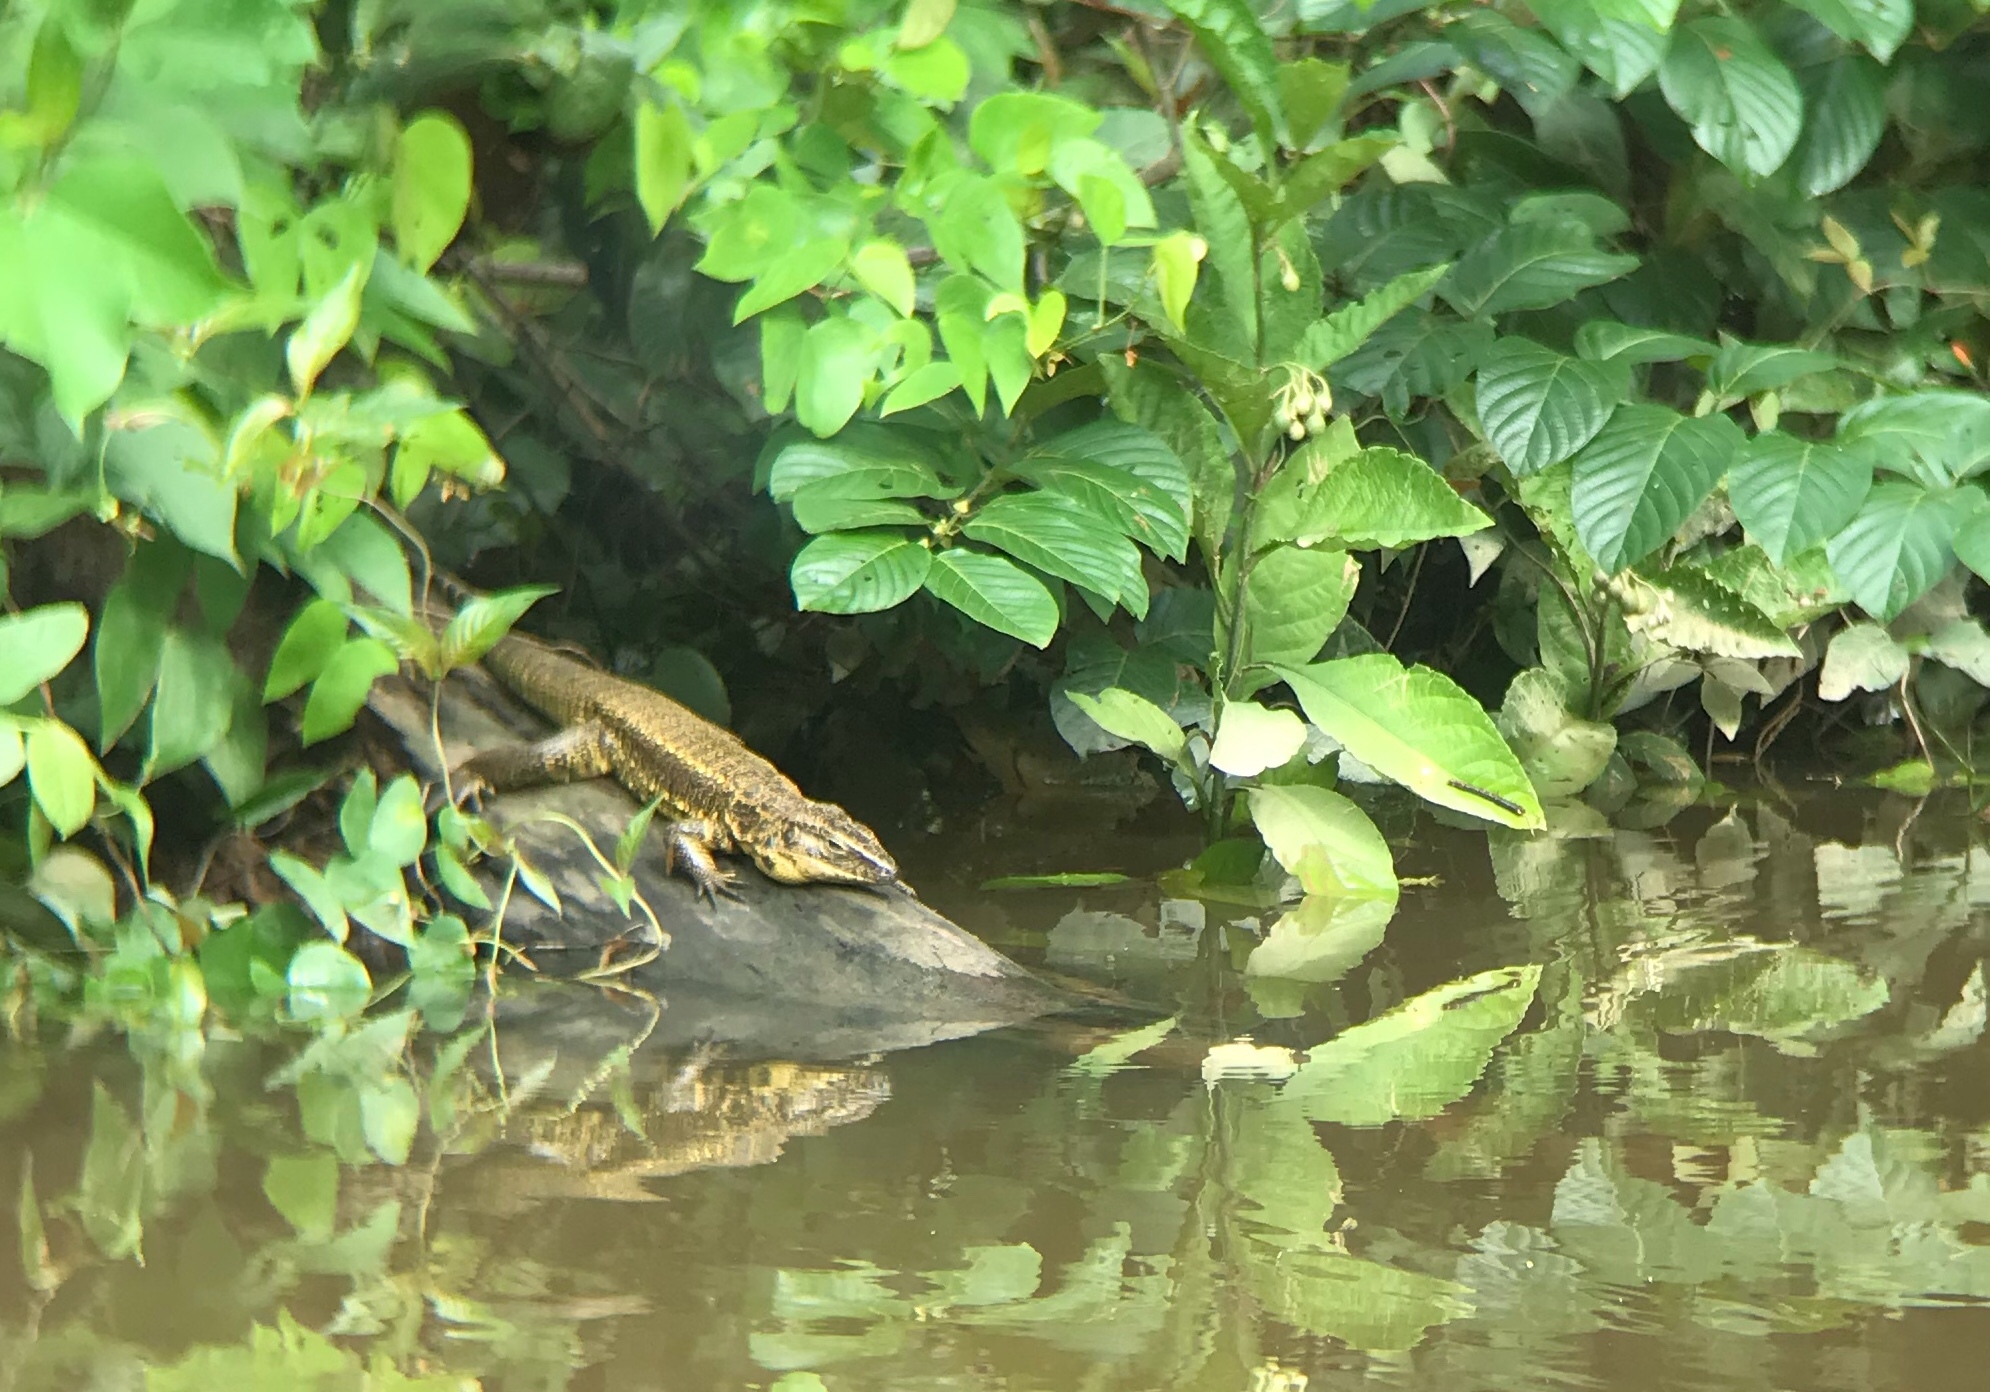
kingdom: Animalia
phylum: Chordata
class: Squamata
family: Teiidae
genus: Tupinambis
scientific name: Tupinambis cuzcoensis
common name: Cusco tegu lizard
